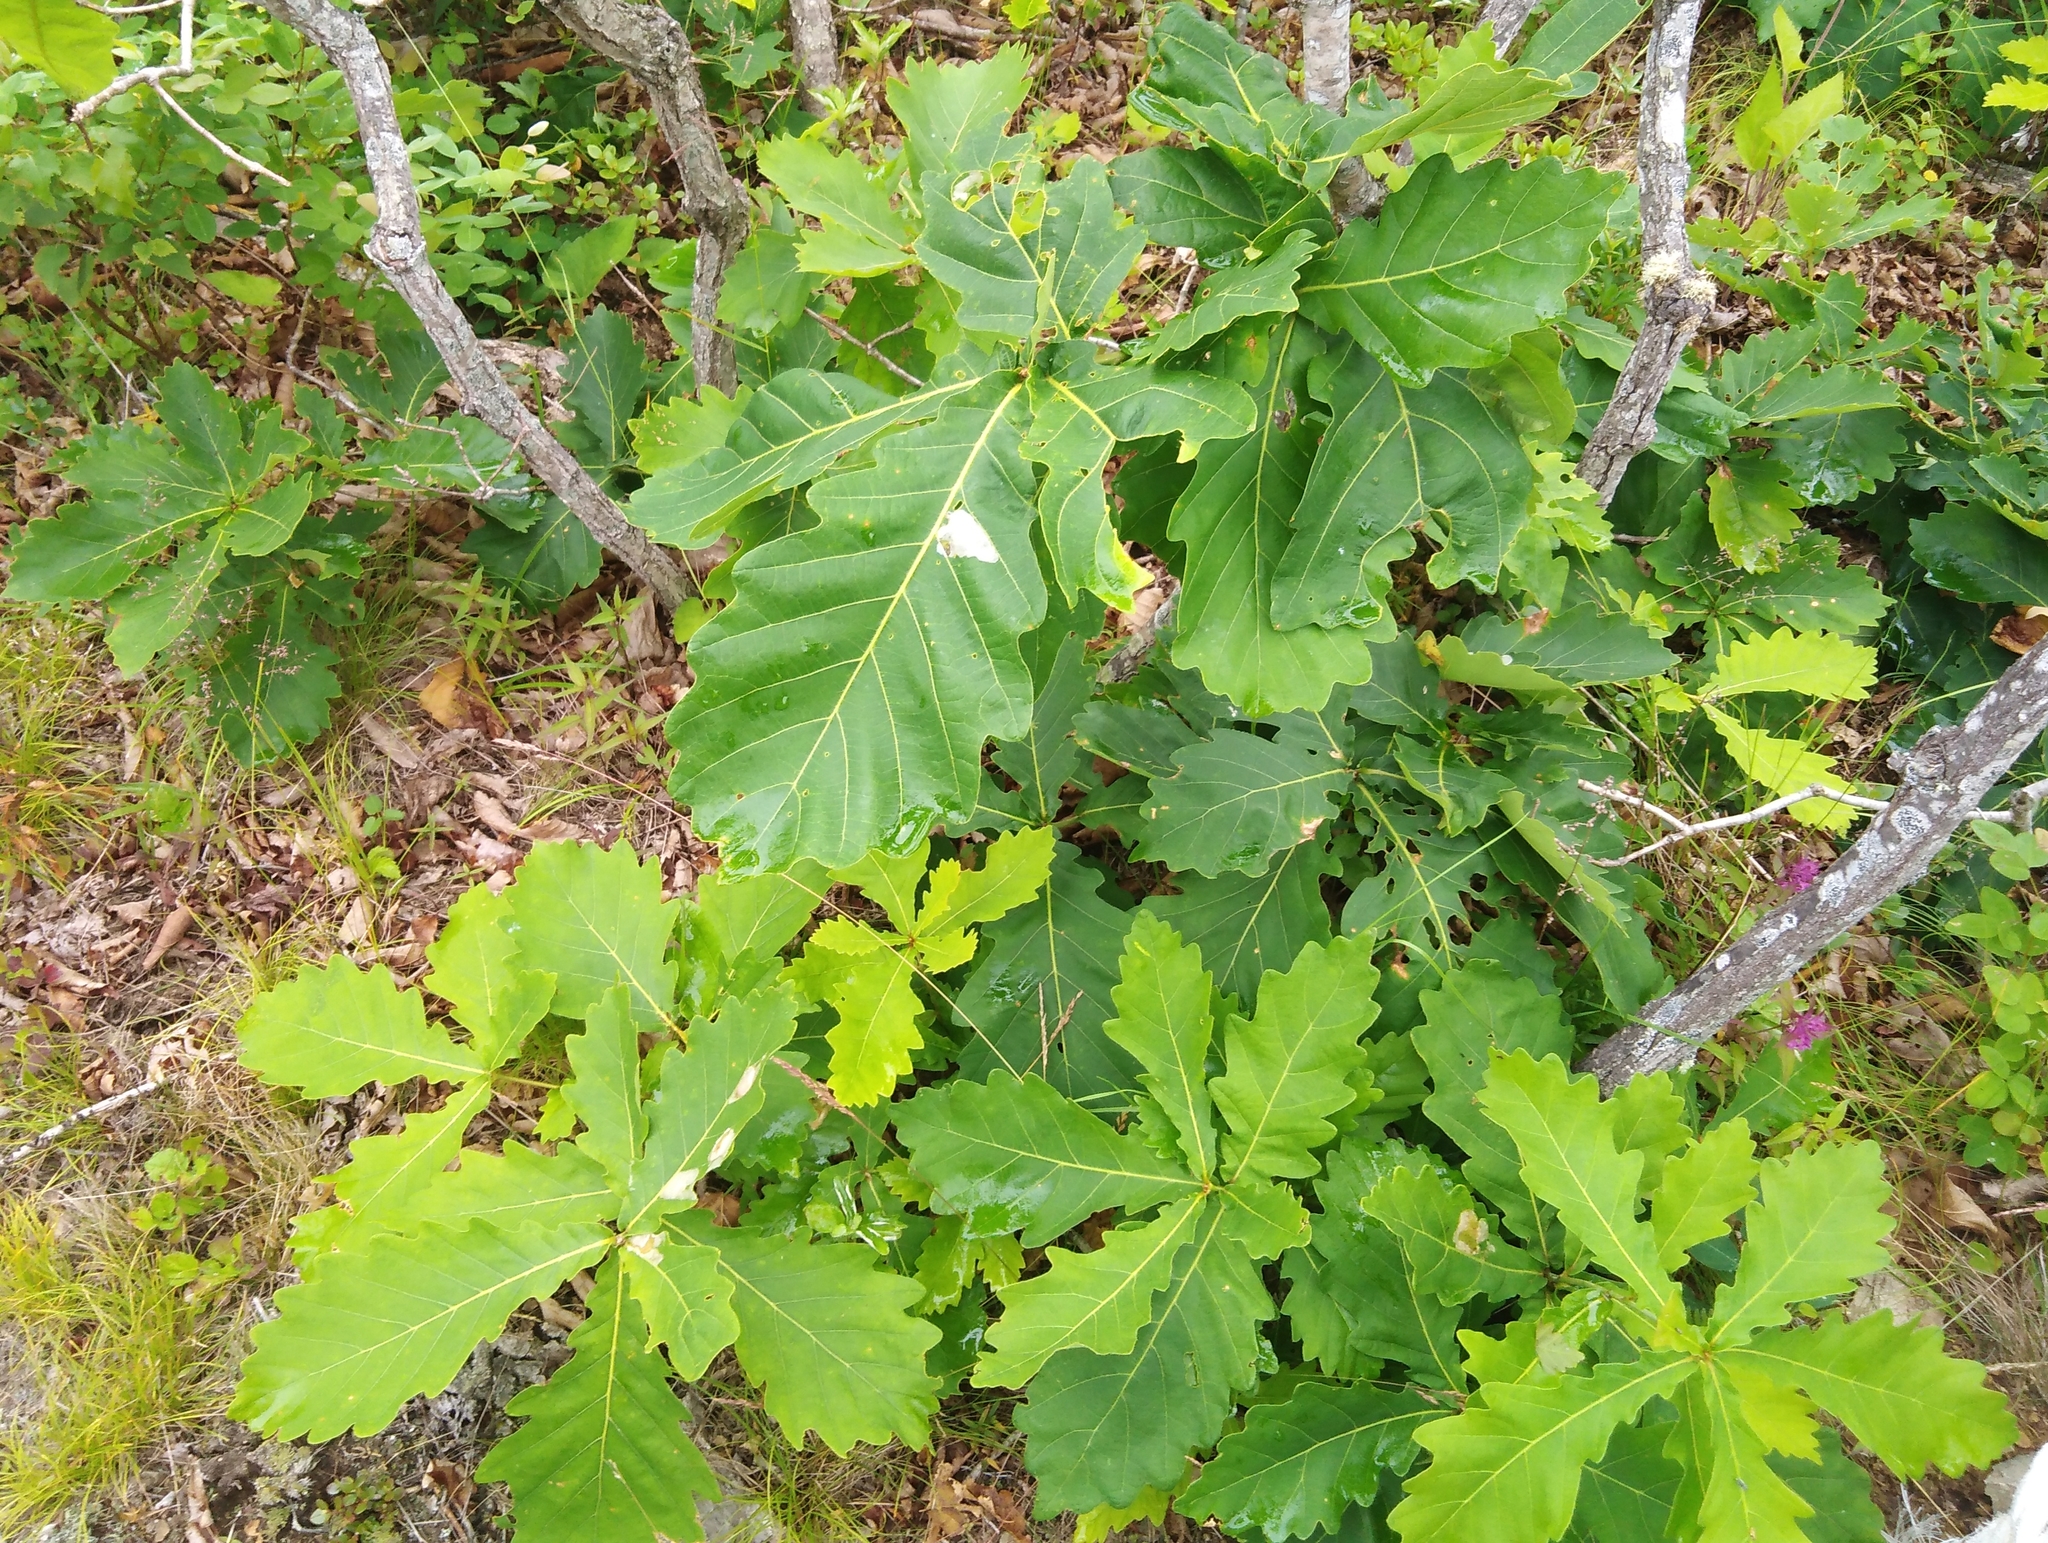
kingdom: Plantae
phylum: Tracheophyta
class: Magnoliopsida
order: Fagales
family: Fagaceae
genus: Quercus
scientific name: Quercus mongolica
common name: Mongolian oak
